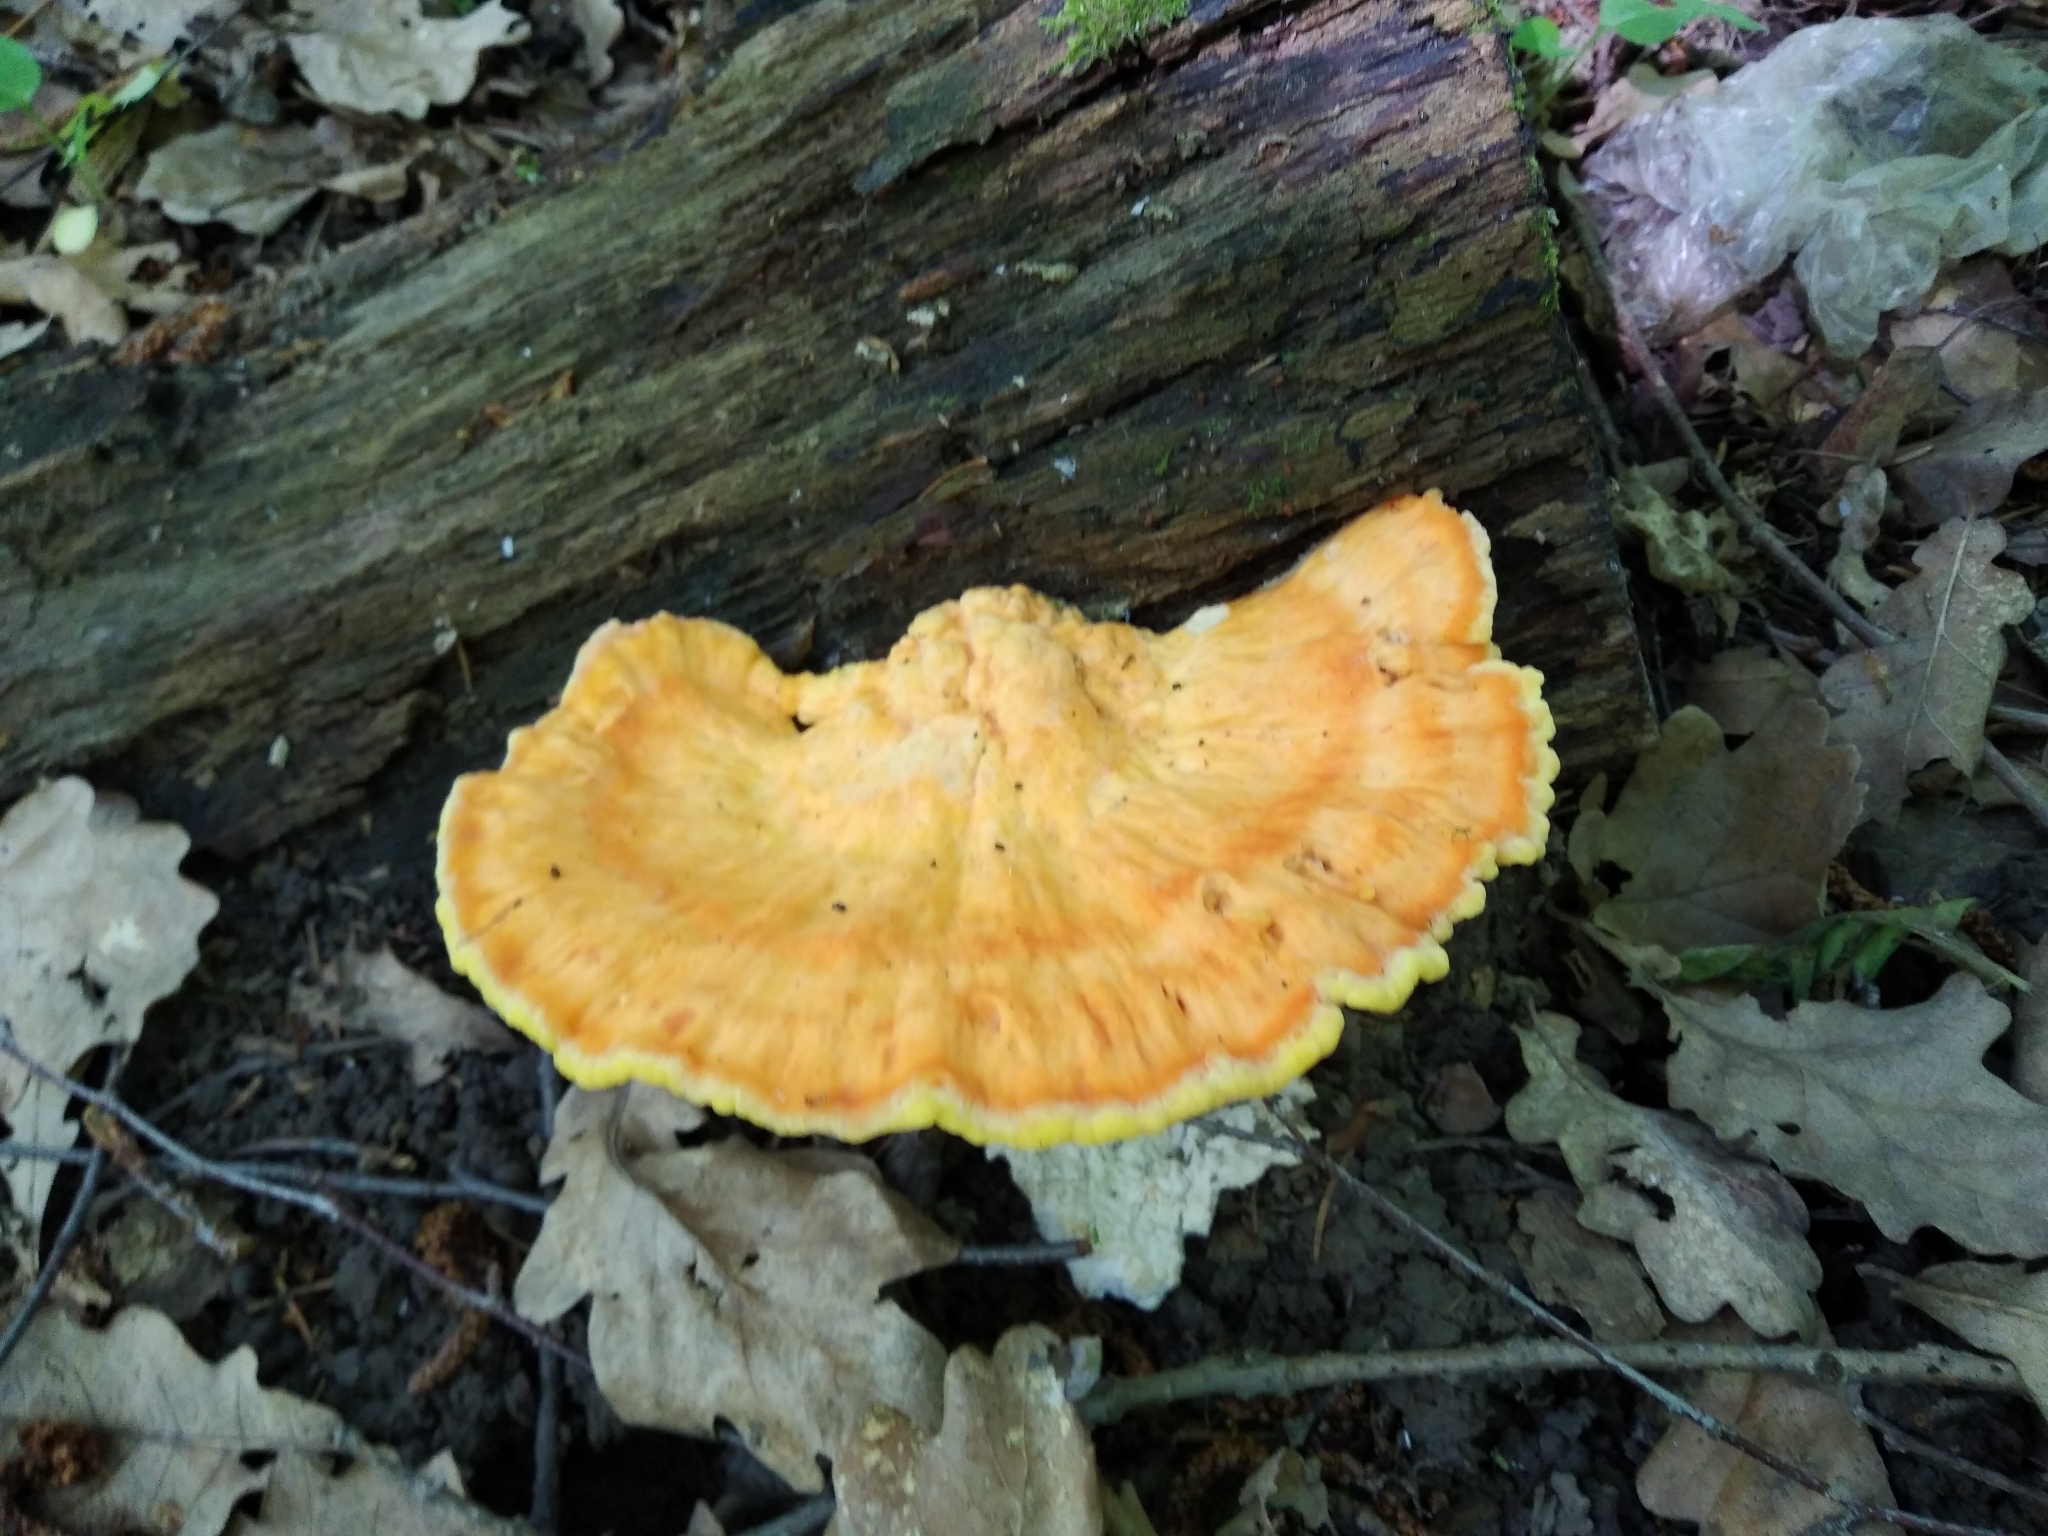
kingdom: Fungi
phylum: Basidiomycota
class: Agaricomycetes
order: Polyporales
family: Laetiporaceae
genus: Laetiporus
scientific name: Laetiporus sulphureus
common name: Chicken of the woods
